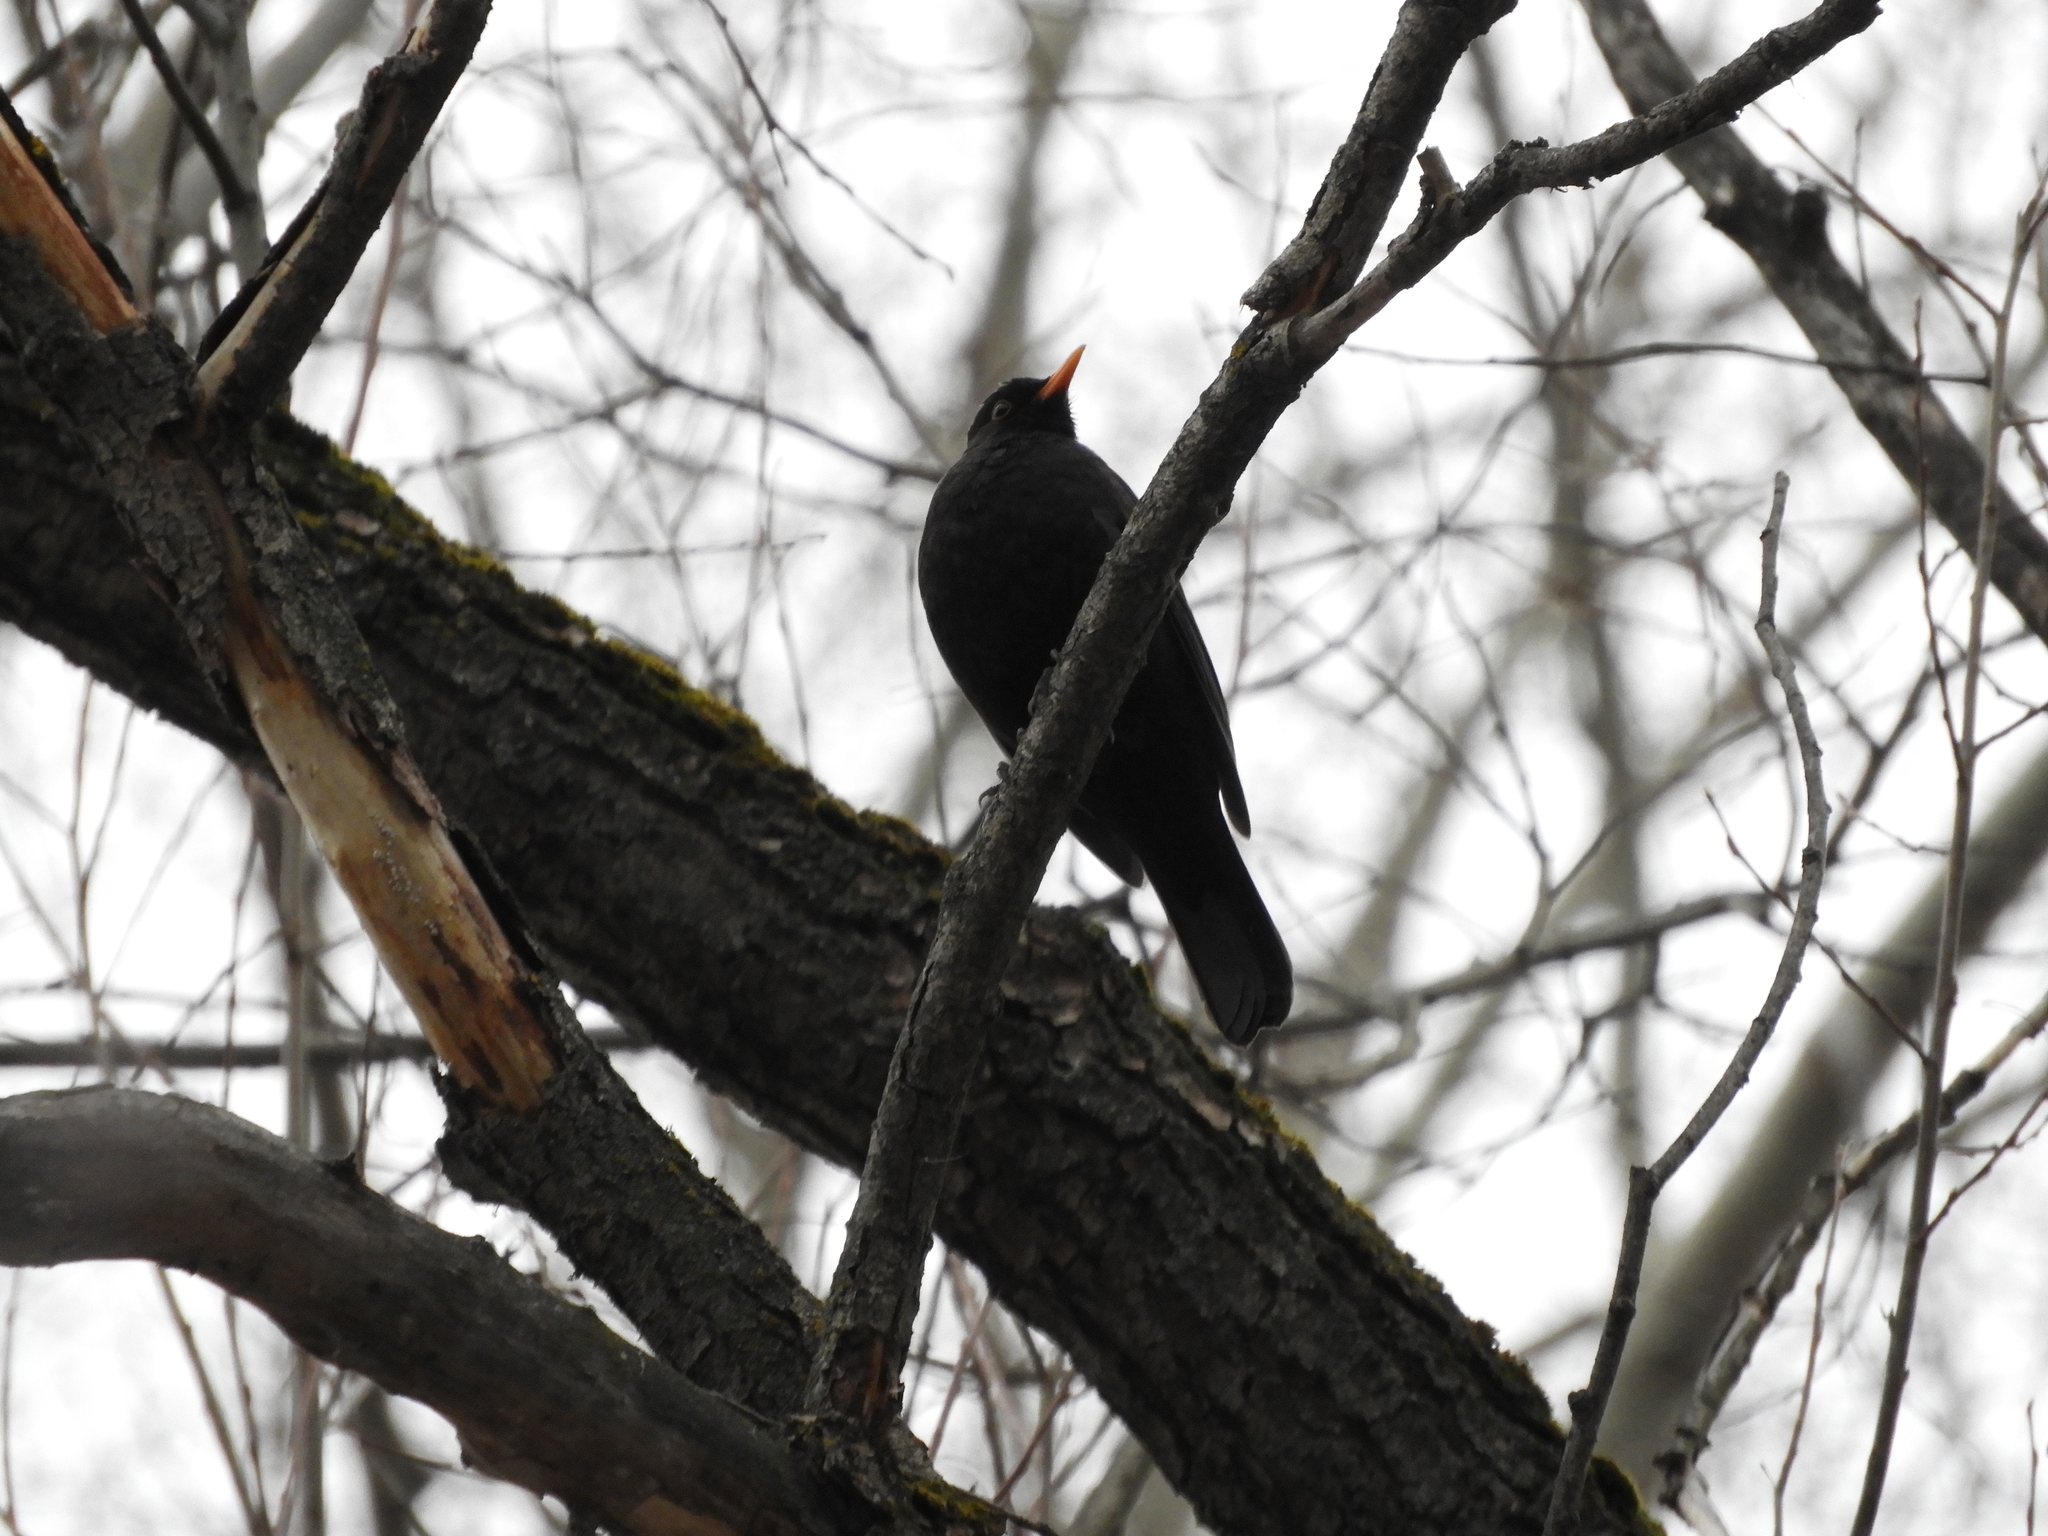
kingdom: Animalia
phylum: Chordata
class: Aves
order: Passeriformes
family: Turdidae
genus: Turdus
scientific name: Turdus merula
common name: Common blackbird
